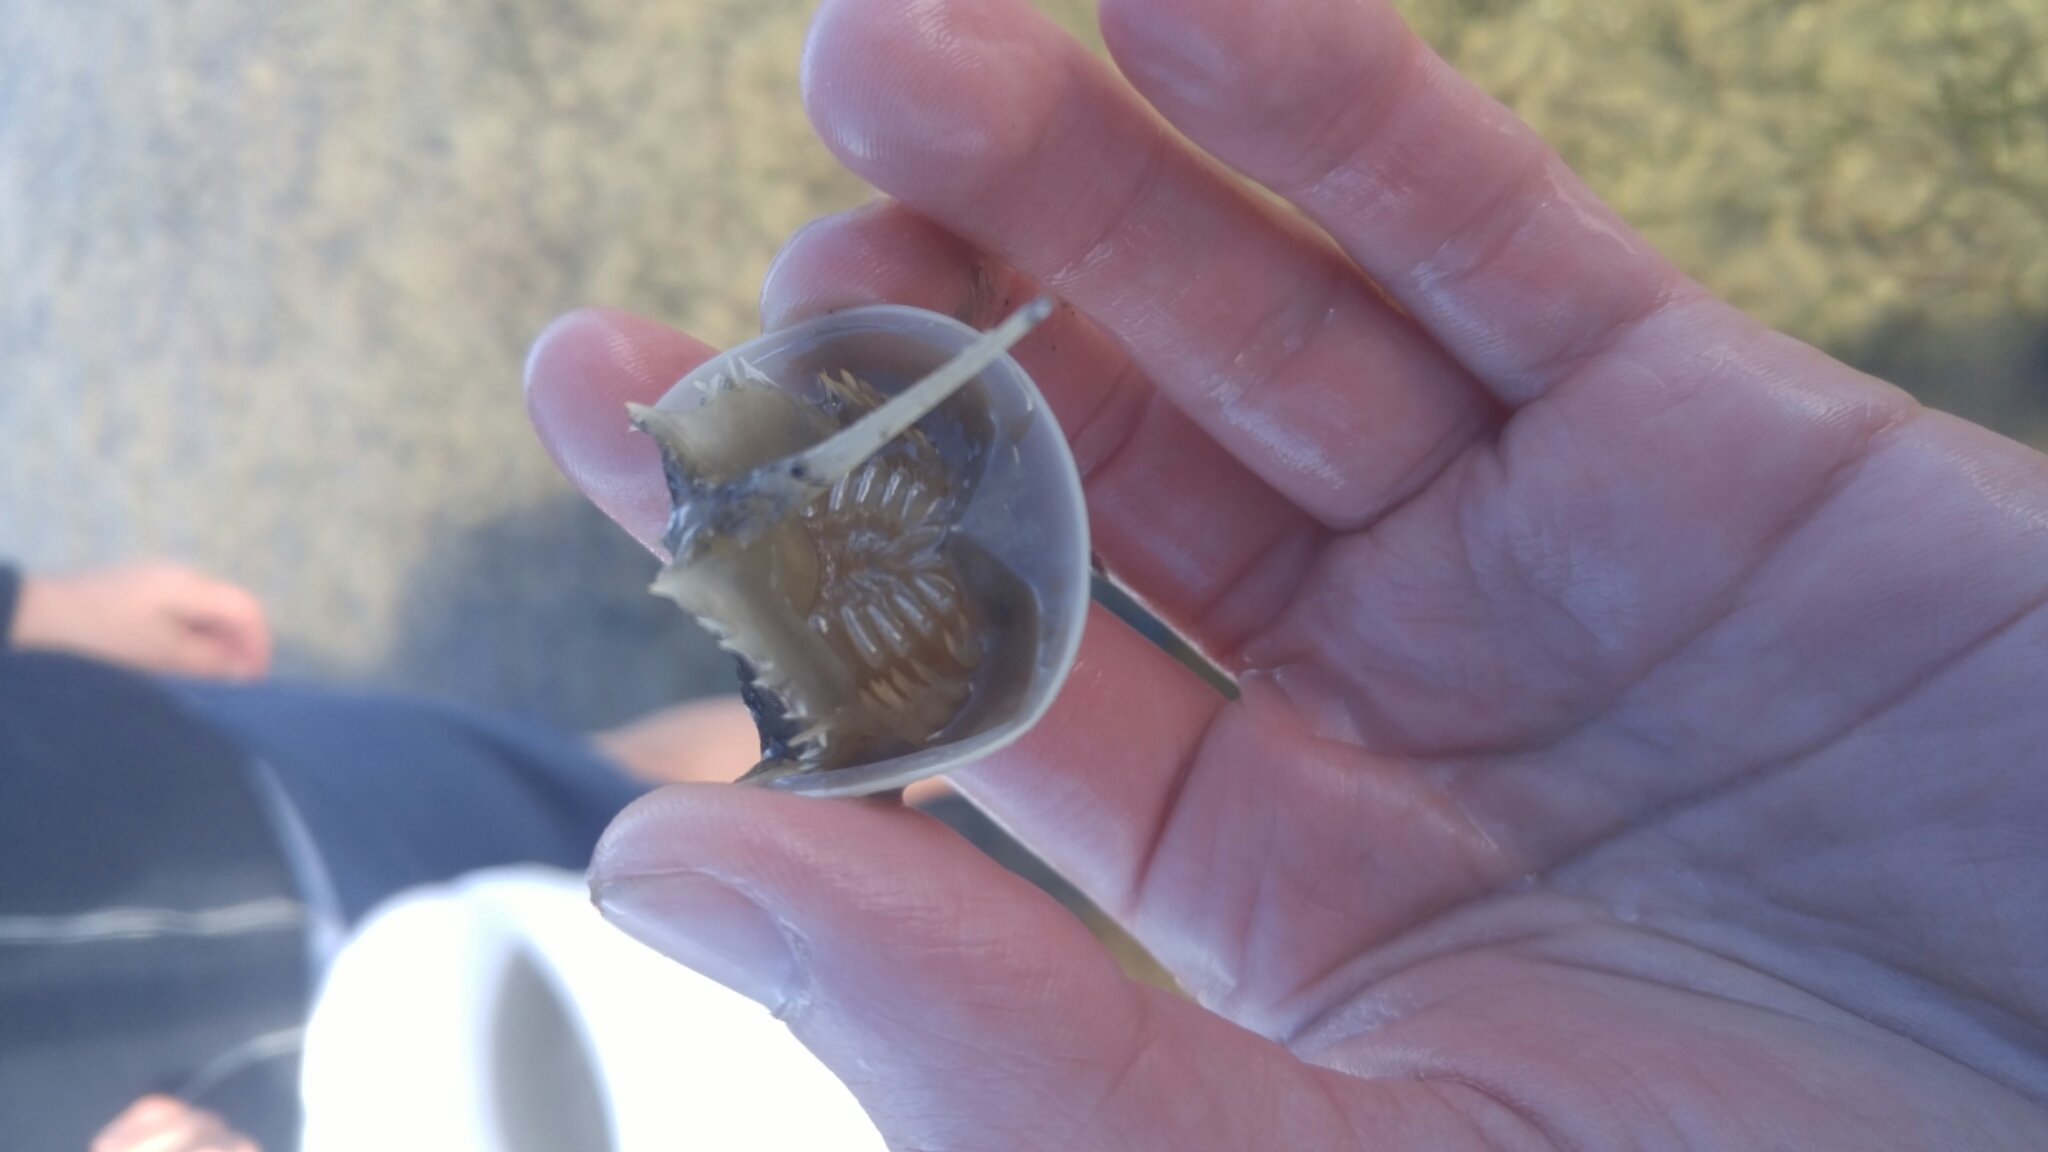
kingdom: Animalia
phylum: Arthropoda
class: Merostomata
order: Xiphosurida
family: Limulidae
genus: Limulus
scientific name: Limulus polyphemus
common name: Horseshoe crab
